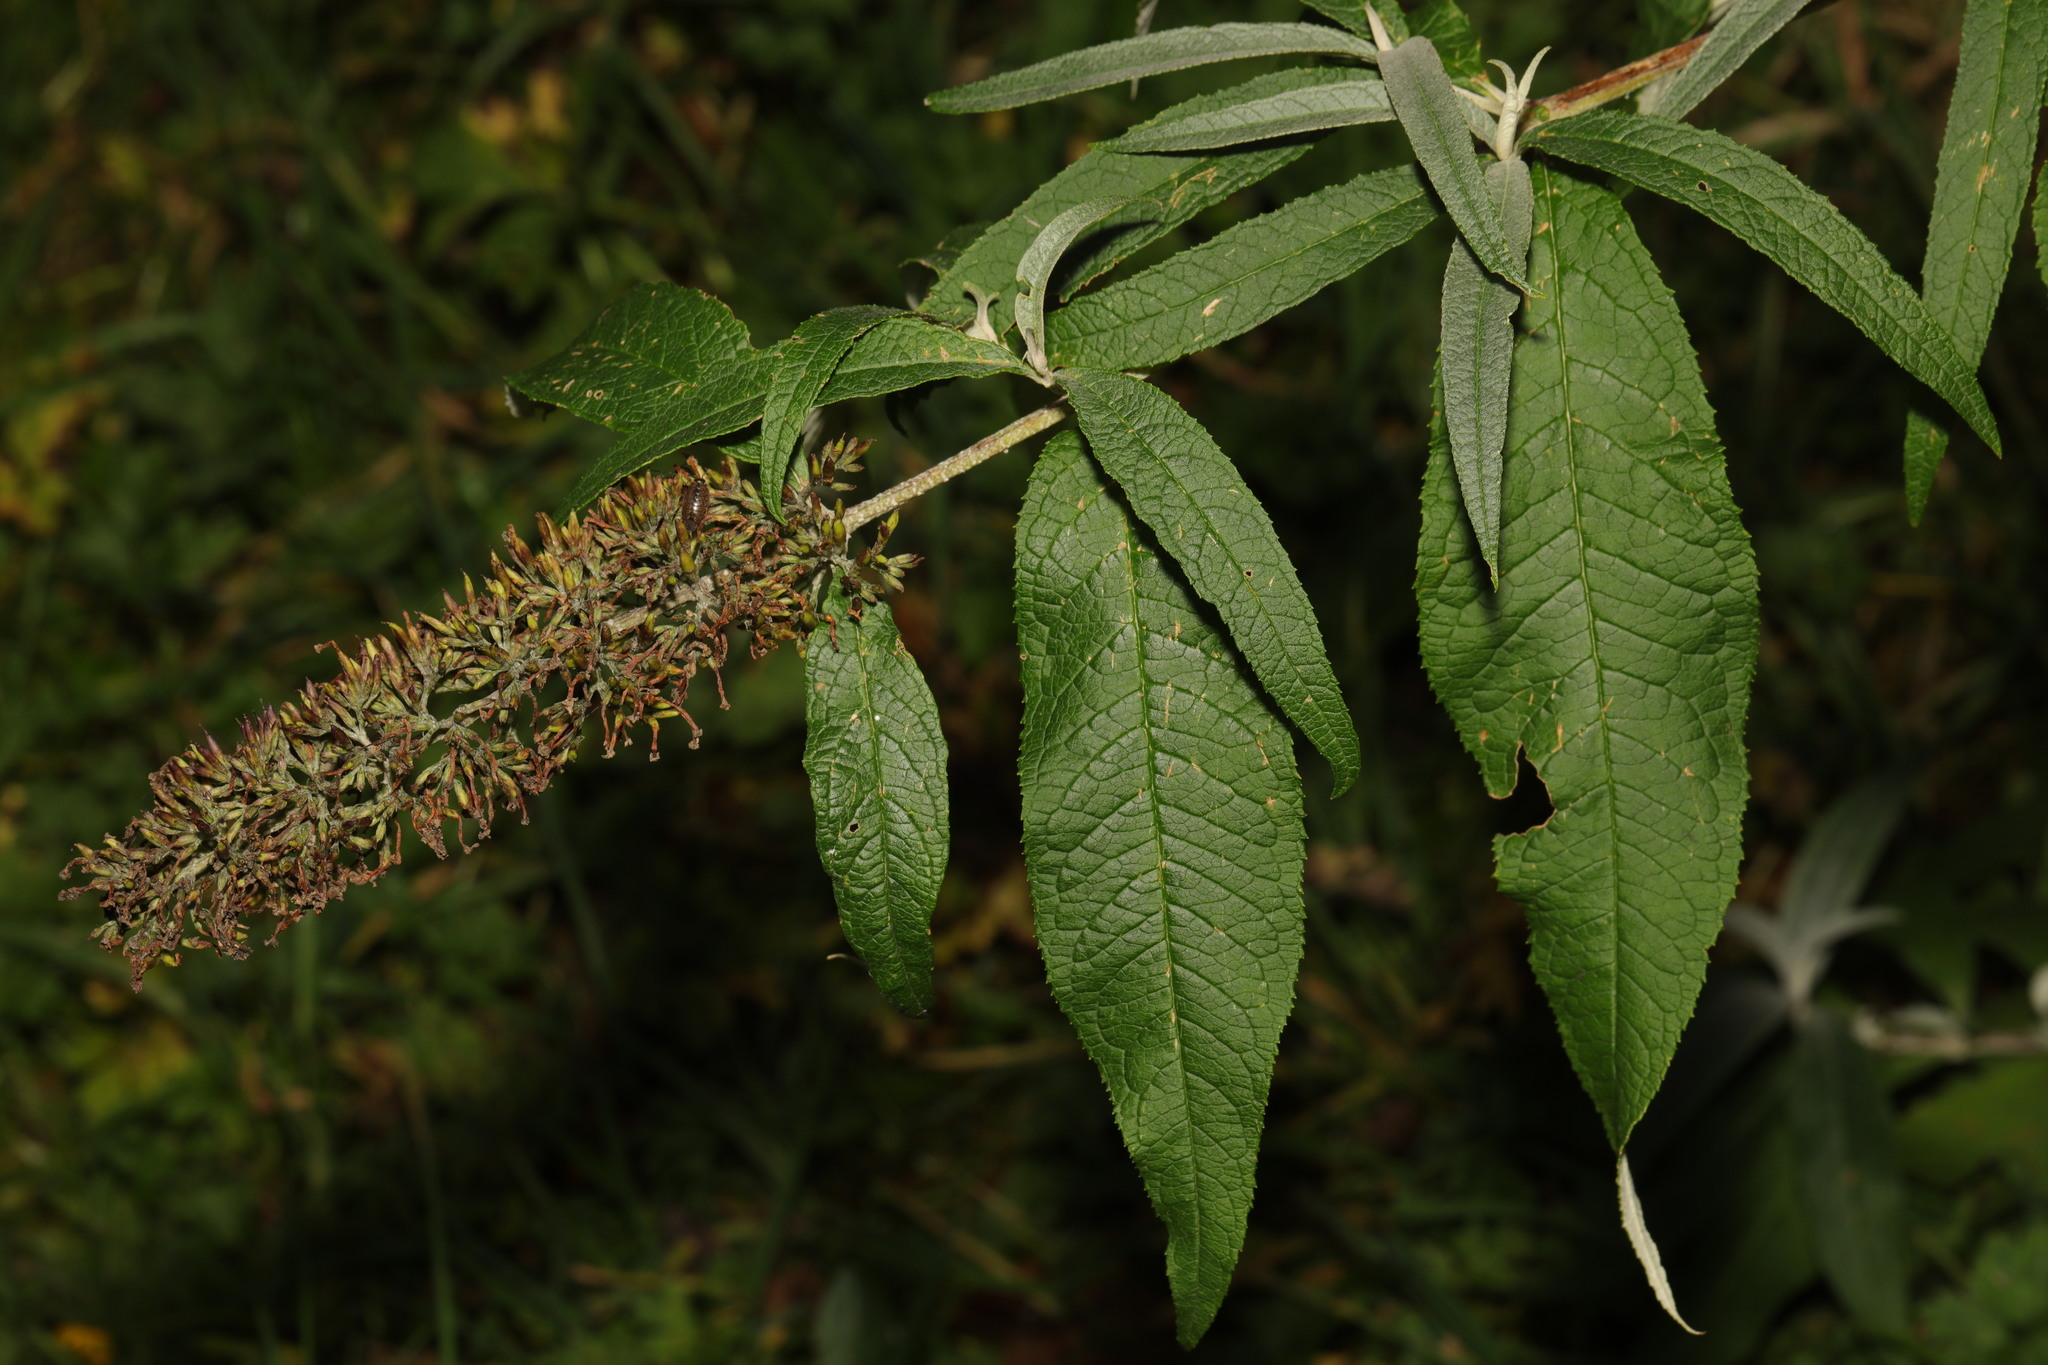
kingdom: Plantae
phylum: Tracheophyta
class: Magnoliopsida
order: Lamiales
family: Scrophulariaceae
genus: Buddleja
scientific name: Buddleja davidii
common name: Butterfly-bush
